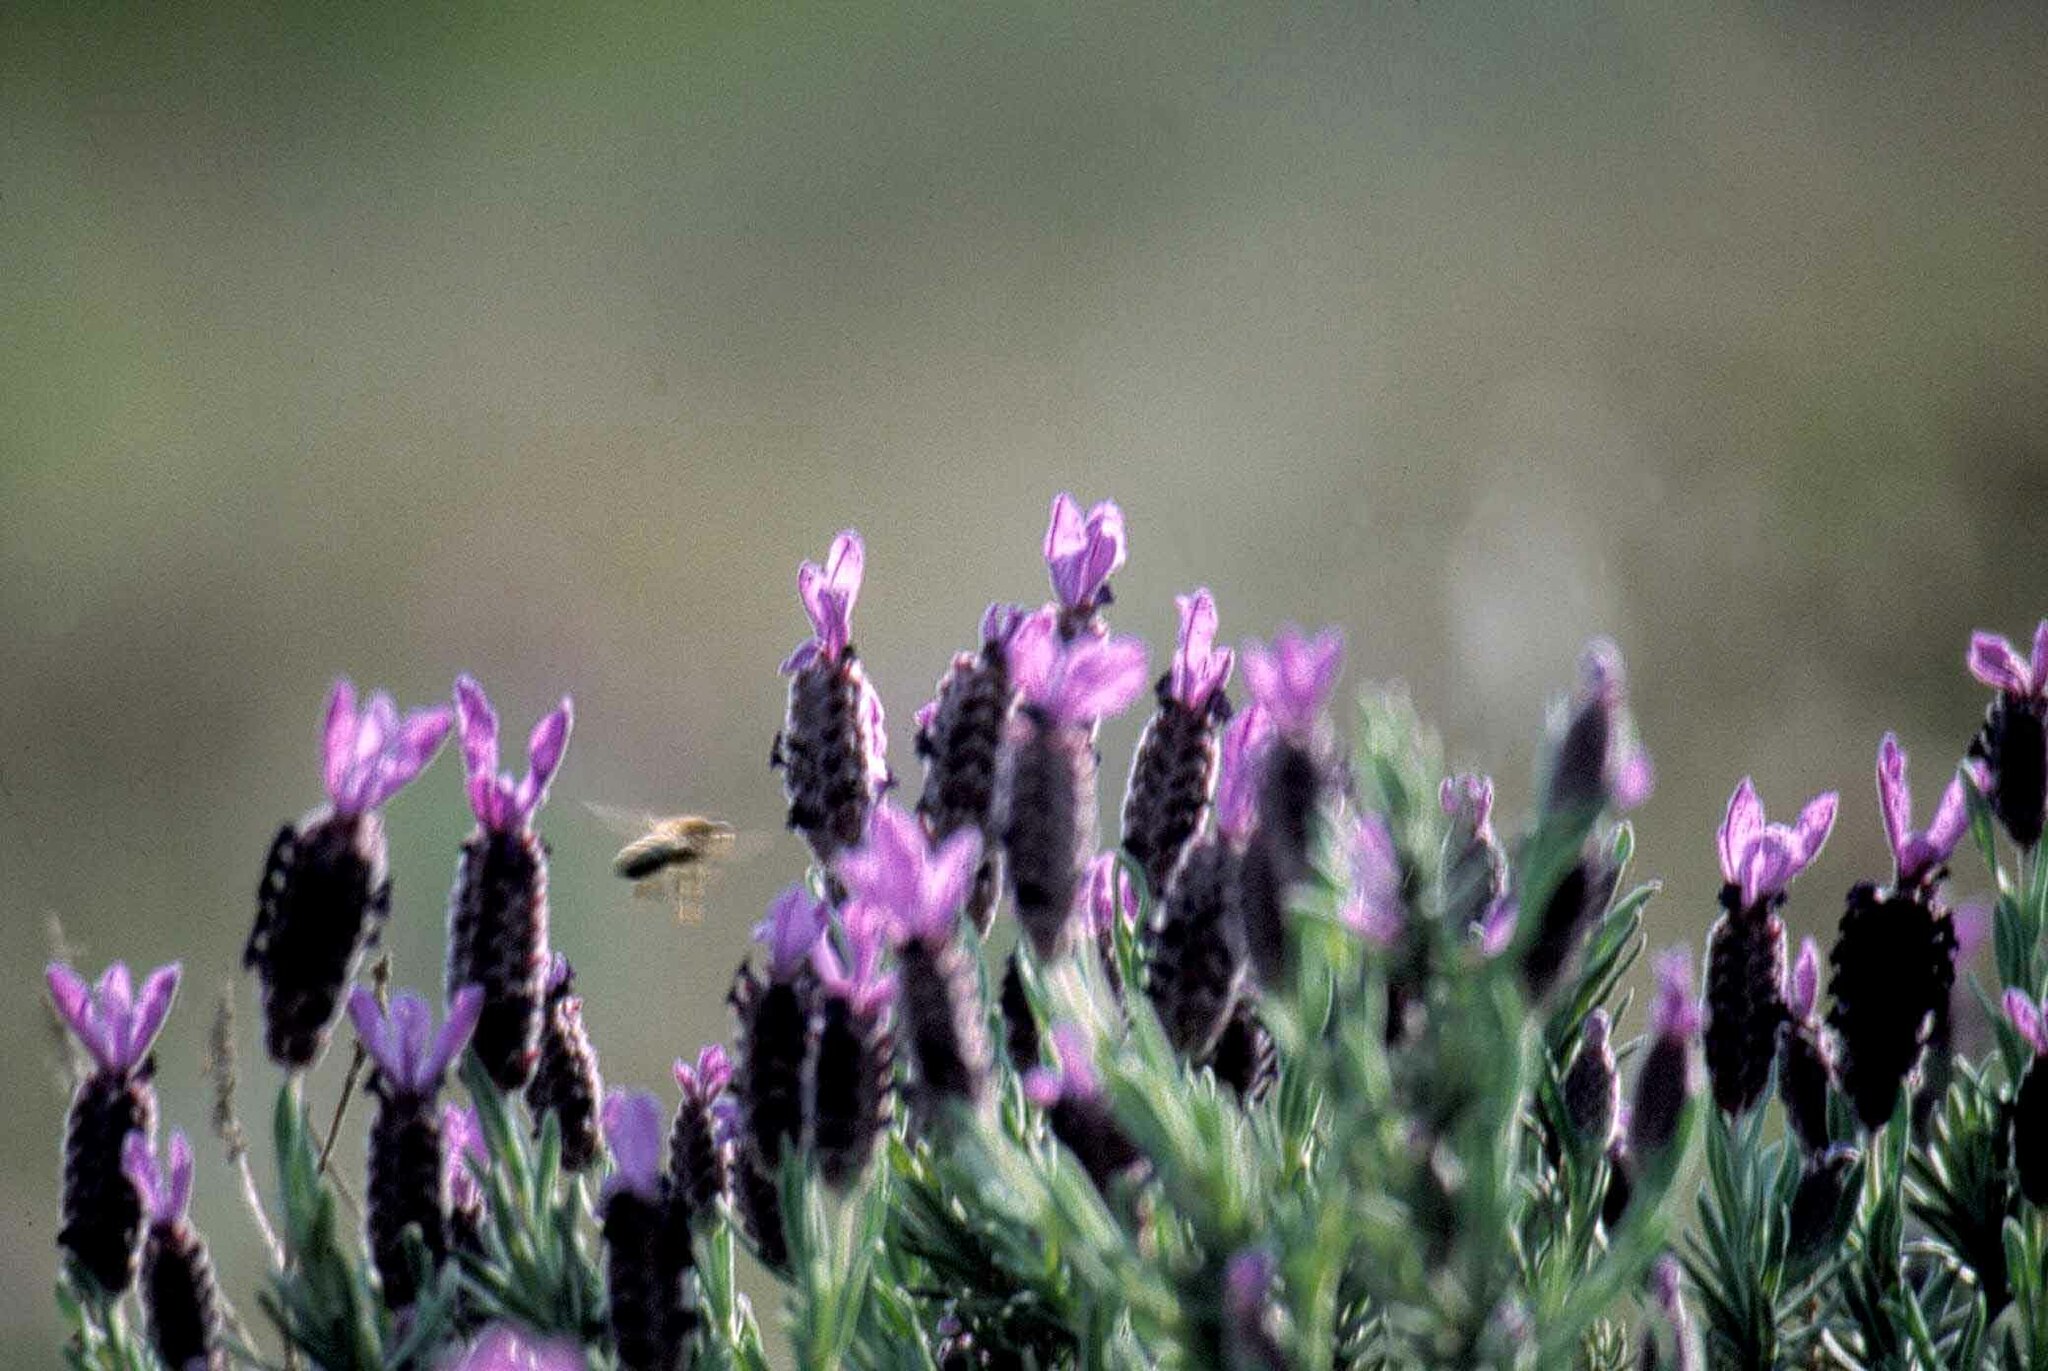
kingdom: Plantae
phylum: Tracheophyta
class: Magnoliopsida
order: Lamiales
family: Lamiaceae
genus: Lavandula
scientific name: Lavandula stoechas
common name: French lavender
